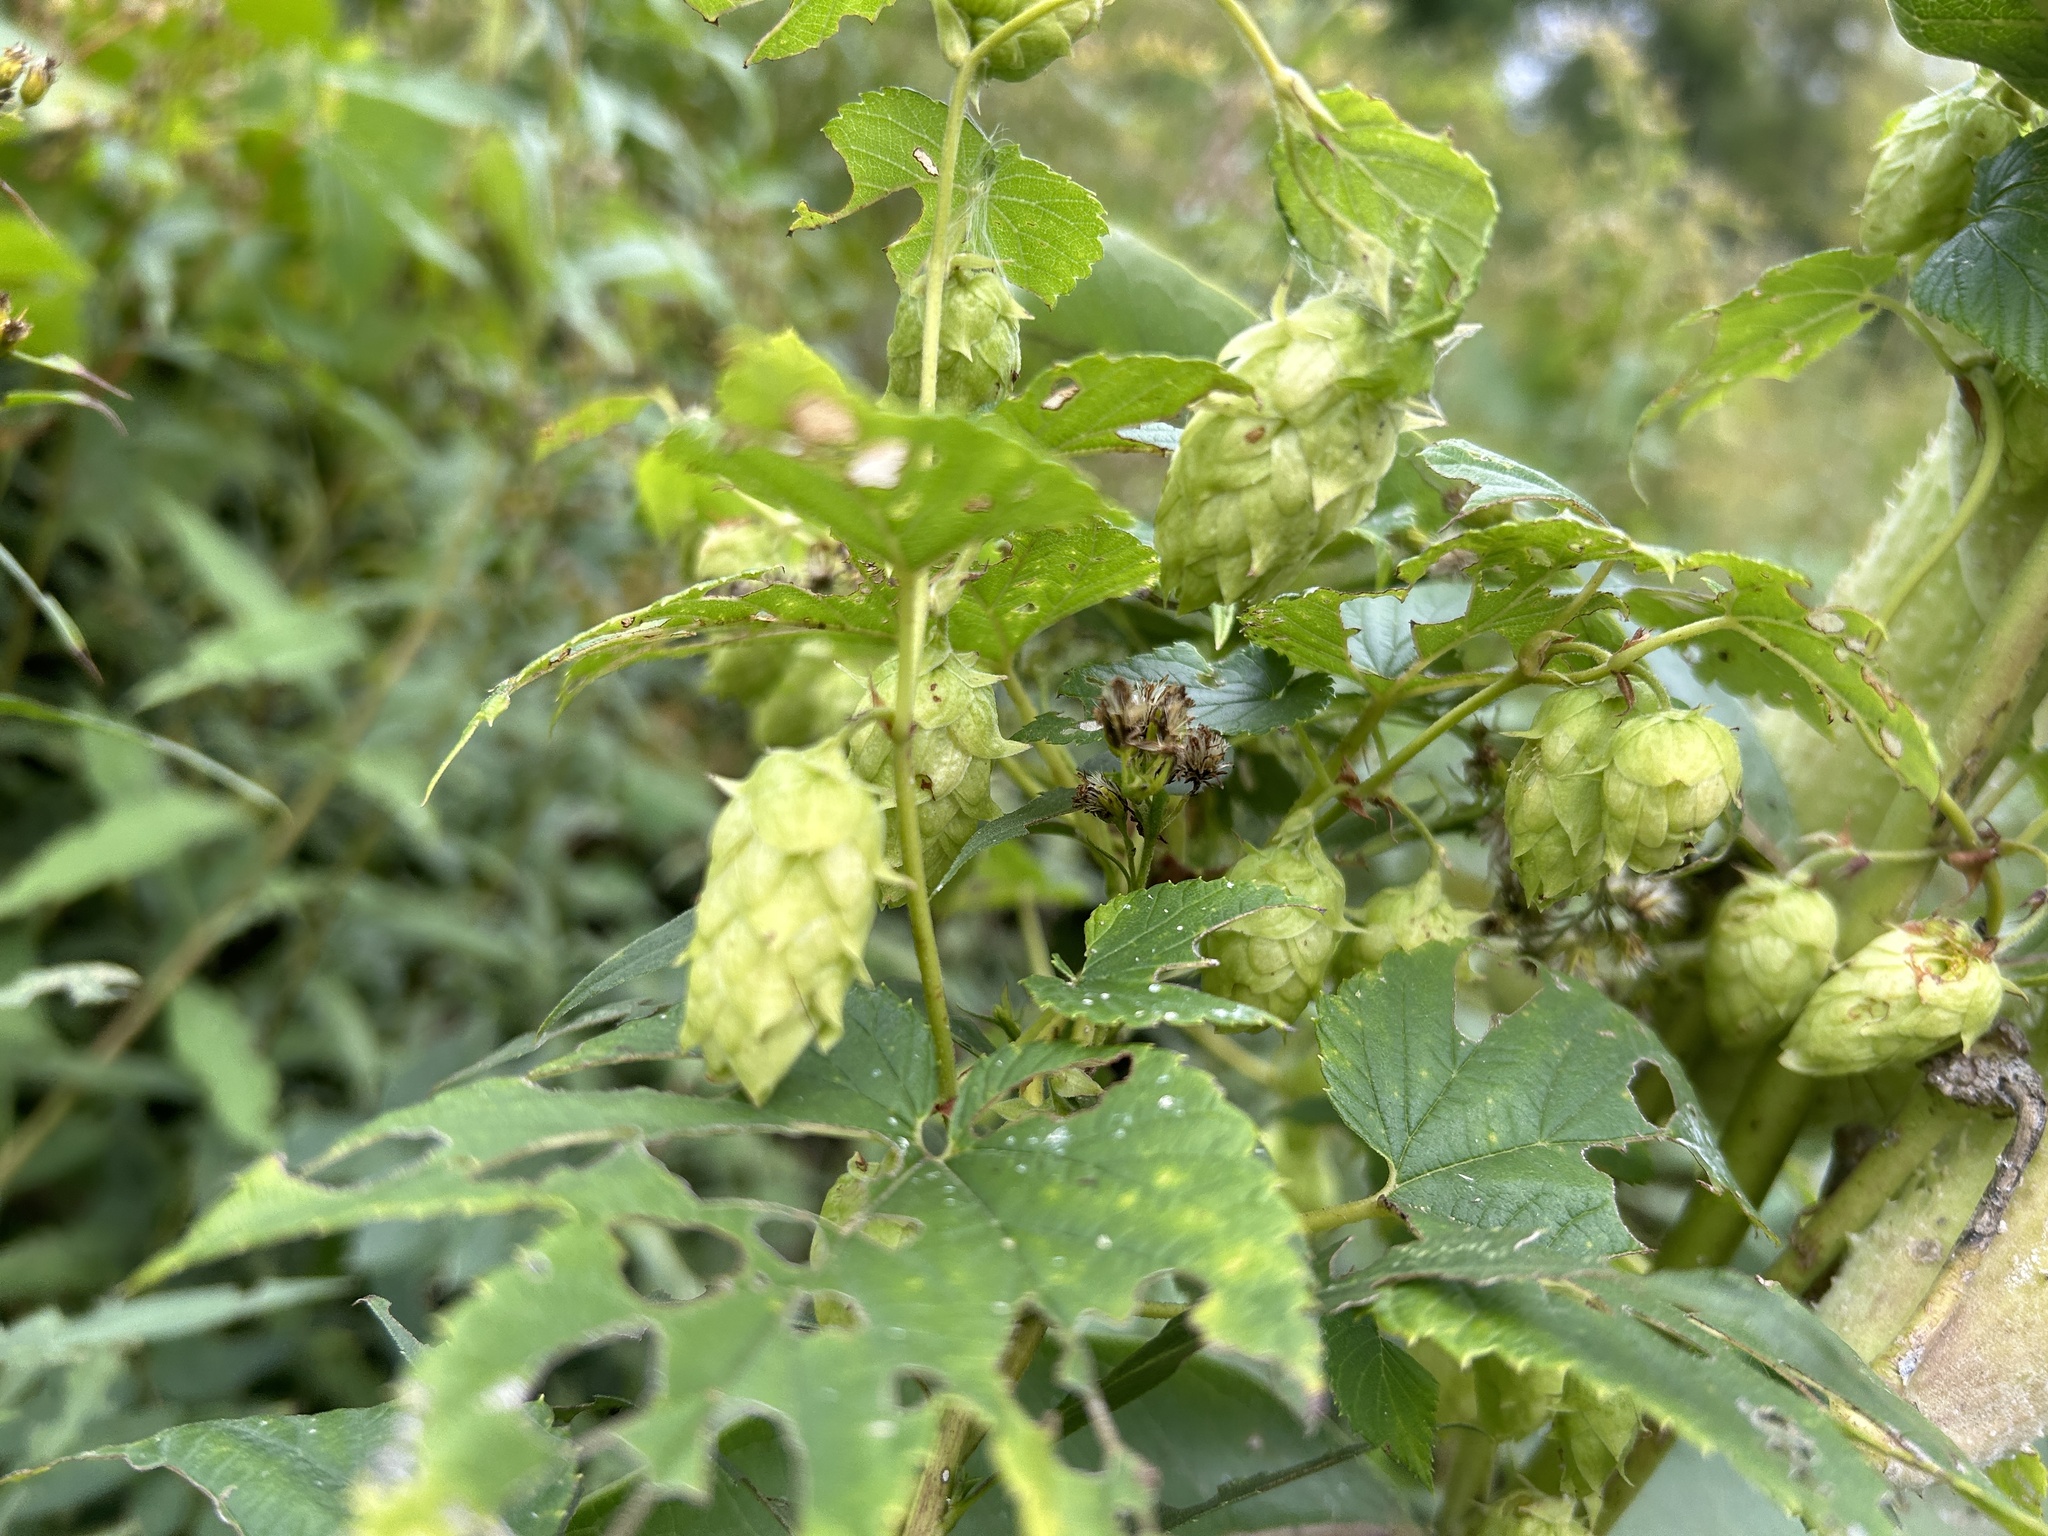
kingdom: Plantae
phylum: Tracheophyta
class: Magnoliopsida
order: Rosales
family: Cannabaceae
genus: Humulus
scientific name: Humulus lupulus
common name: Hop
